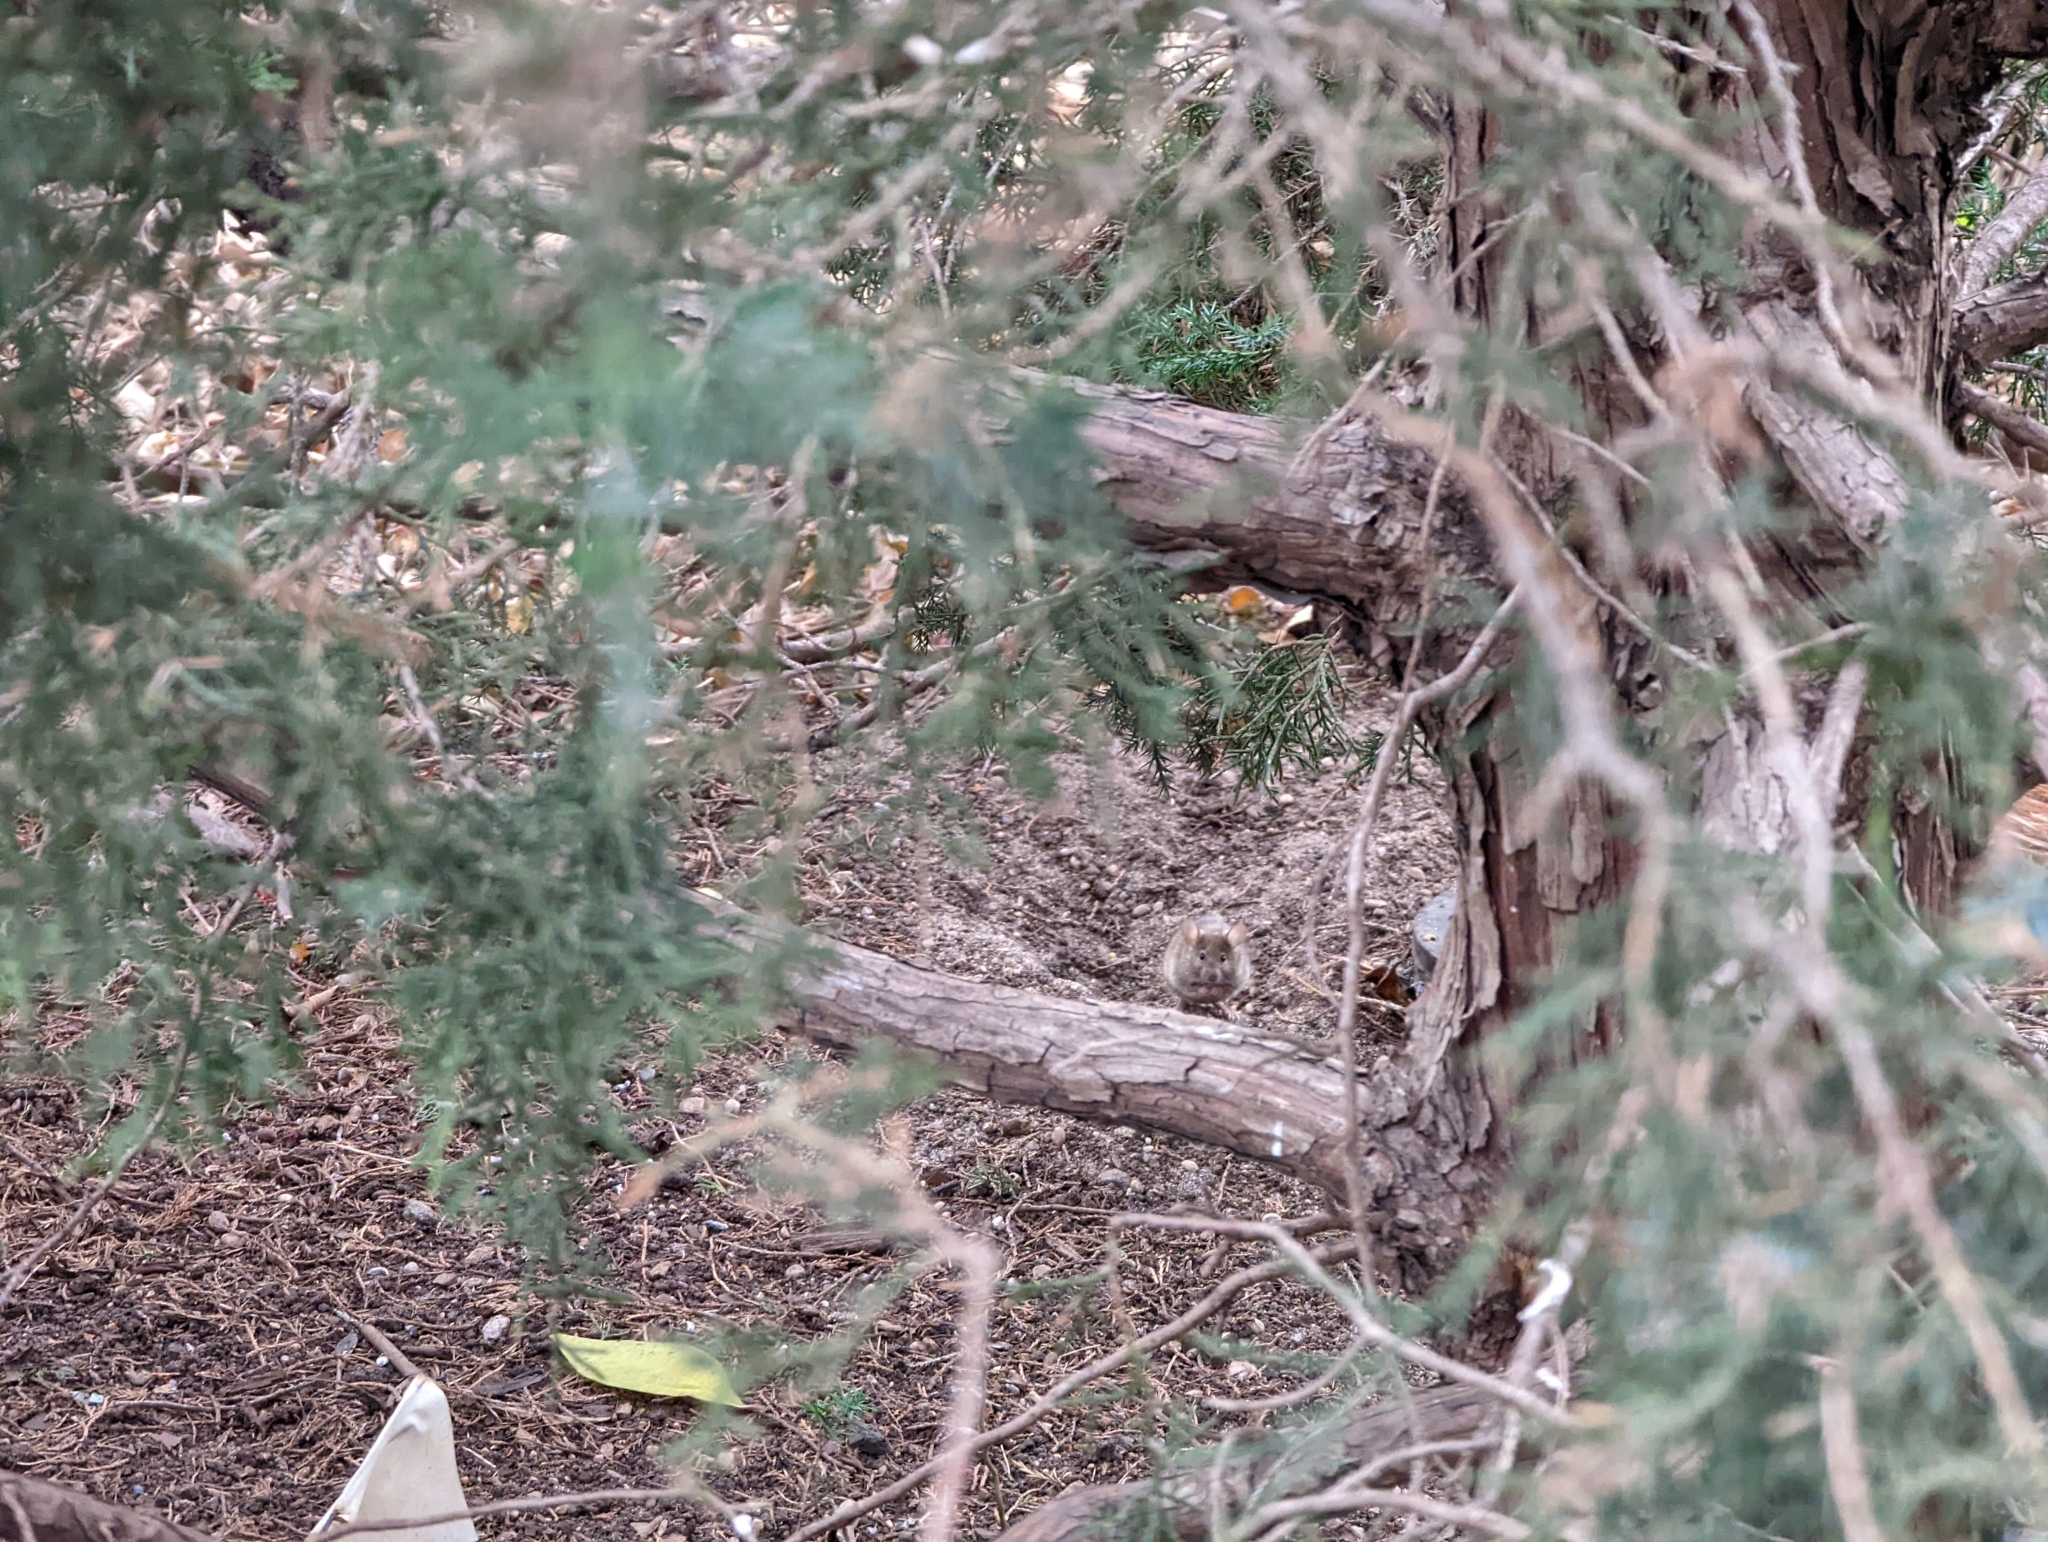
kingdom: Animalia
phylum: Chordata
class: Mammalia
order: Rodentia
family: Muridae
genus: Mus
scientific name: Mus musculus
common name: House mouse
